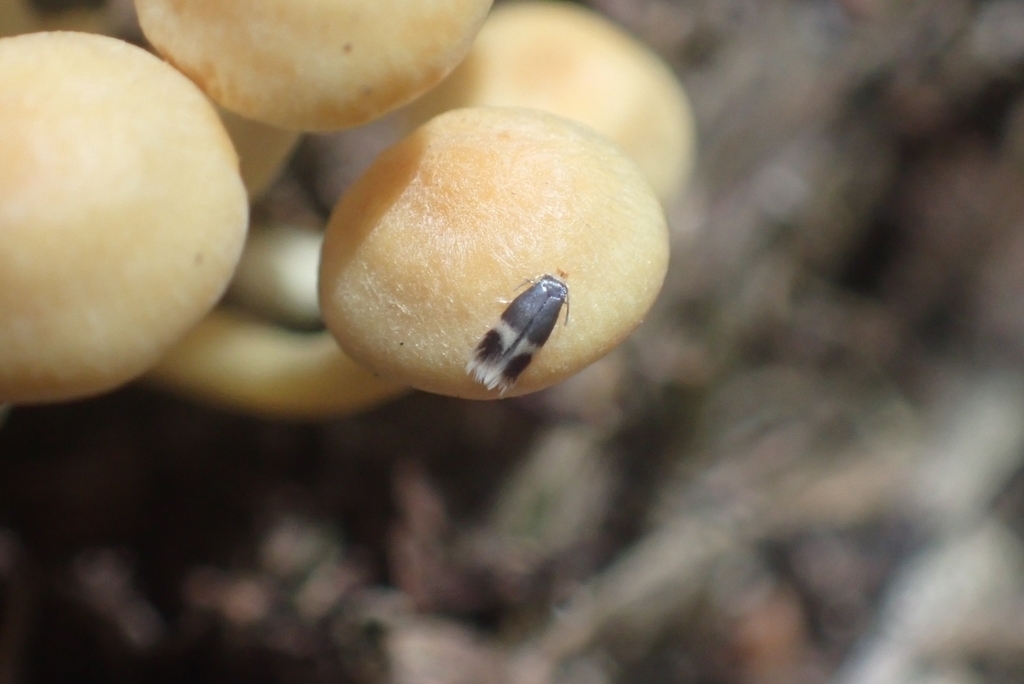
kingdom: Animalia
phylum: Arthropoda
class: Insecta
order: Lepidoptera
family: Nepticulidae
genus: Stigmella
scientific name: Stigmella naturnella
